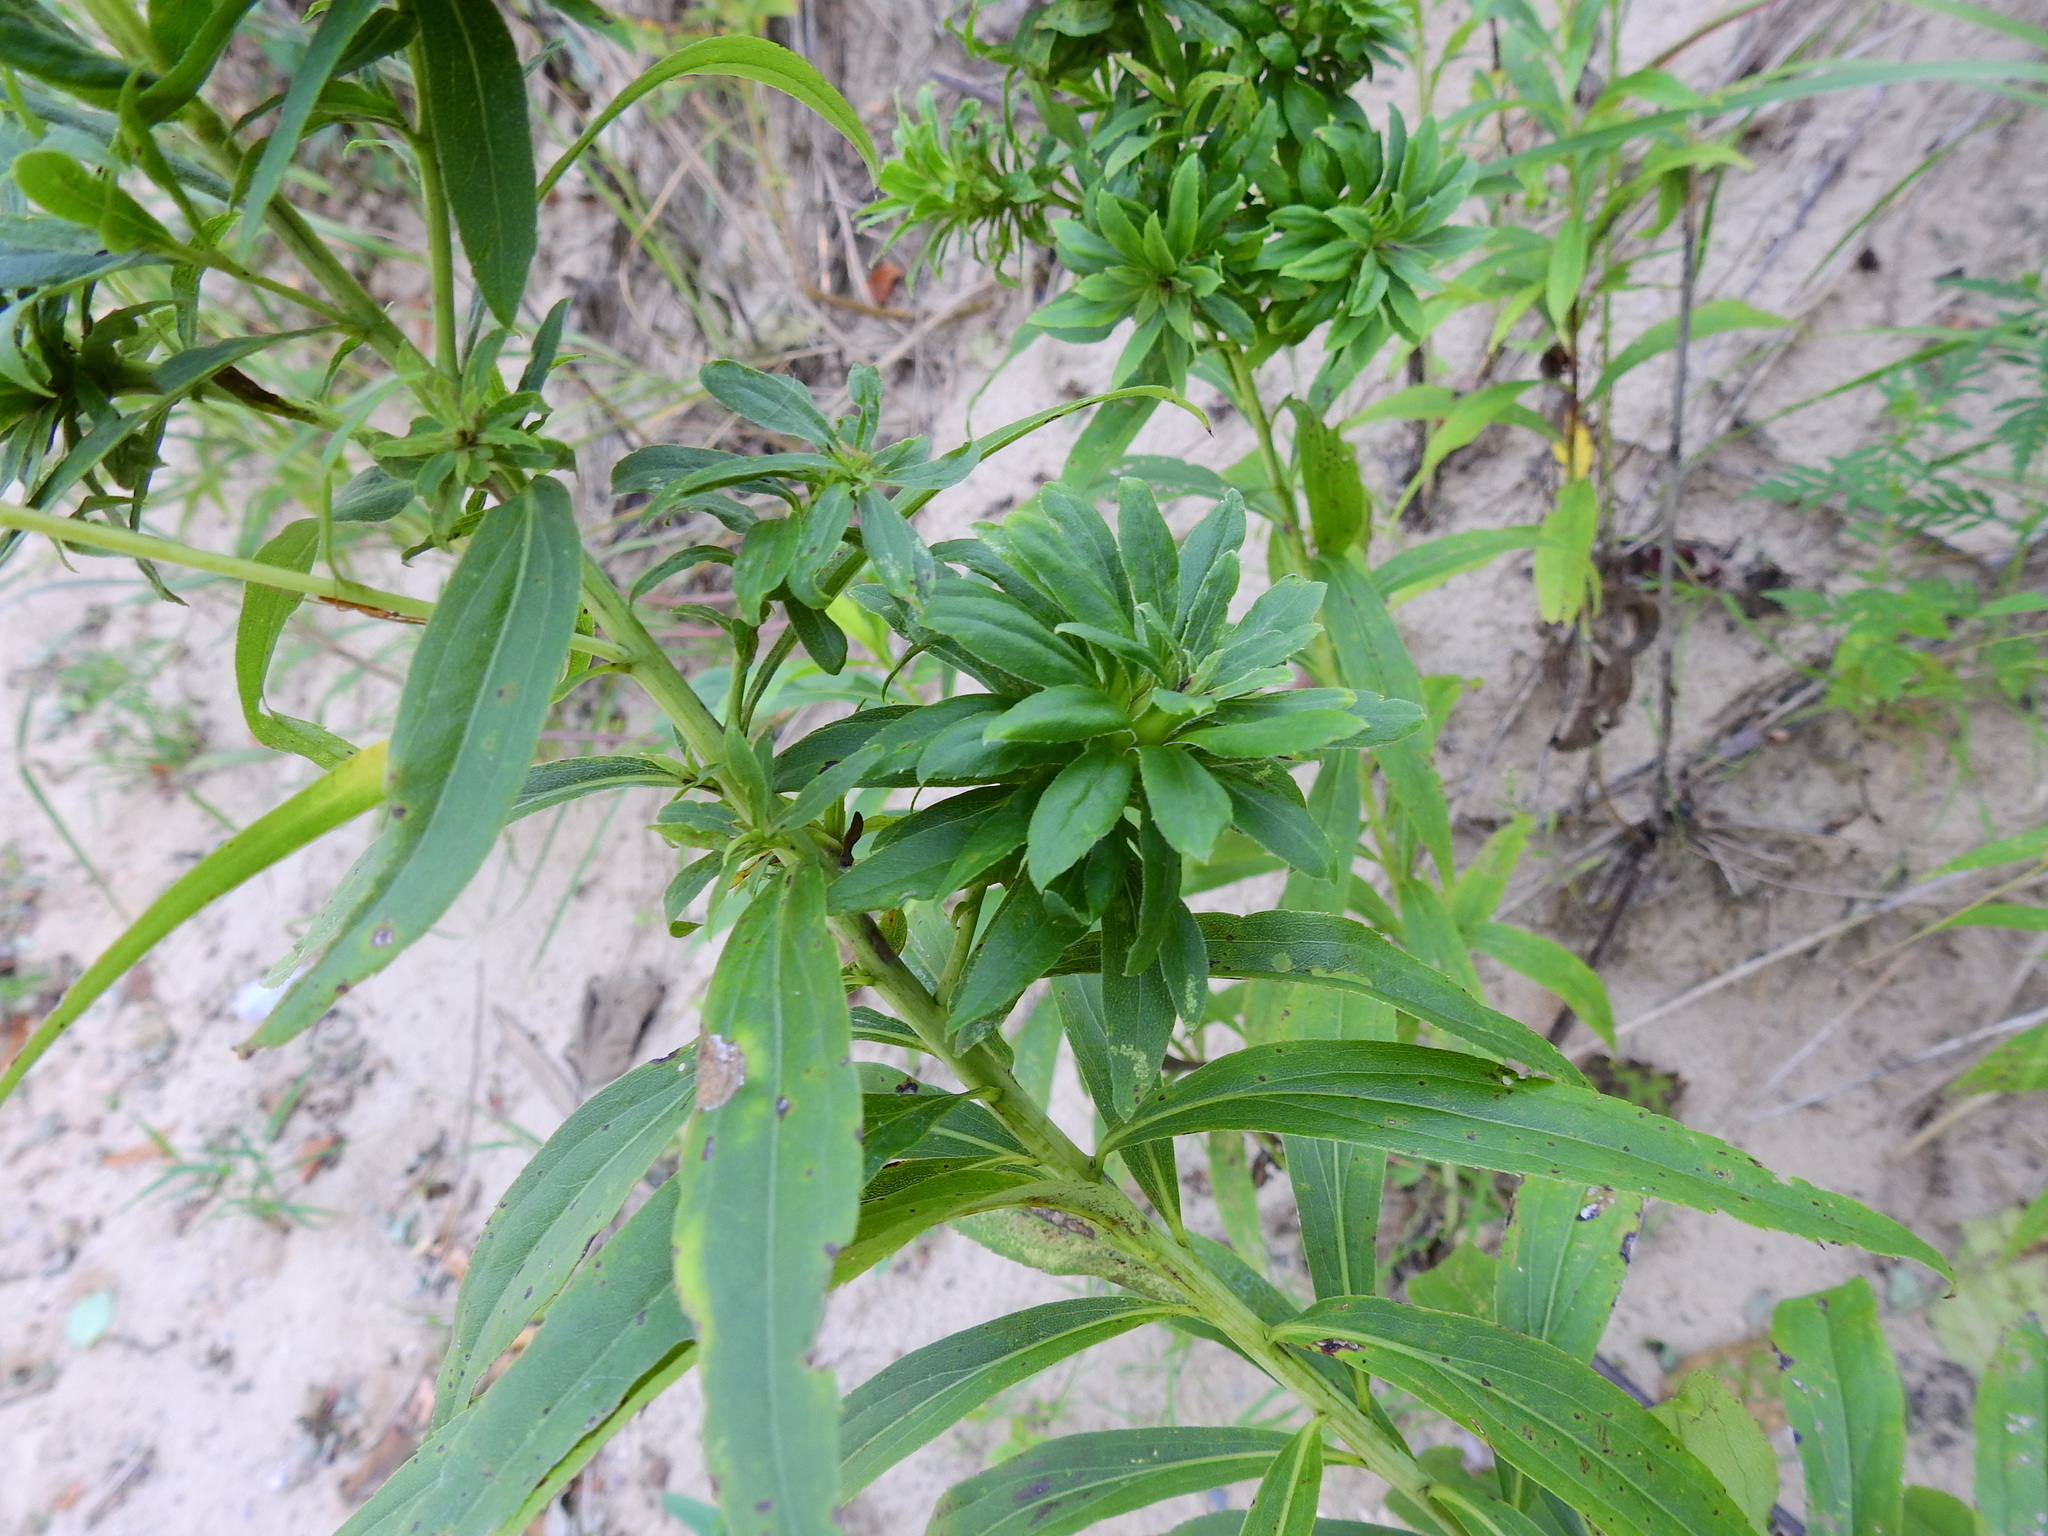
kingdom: Animalia
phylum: Arthropoda
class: Insecta
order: Diptera
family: Tephritidae
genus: Procecidochares
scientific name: Procecidochares atra
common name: Goldenrod brussels sprout gall fly
